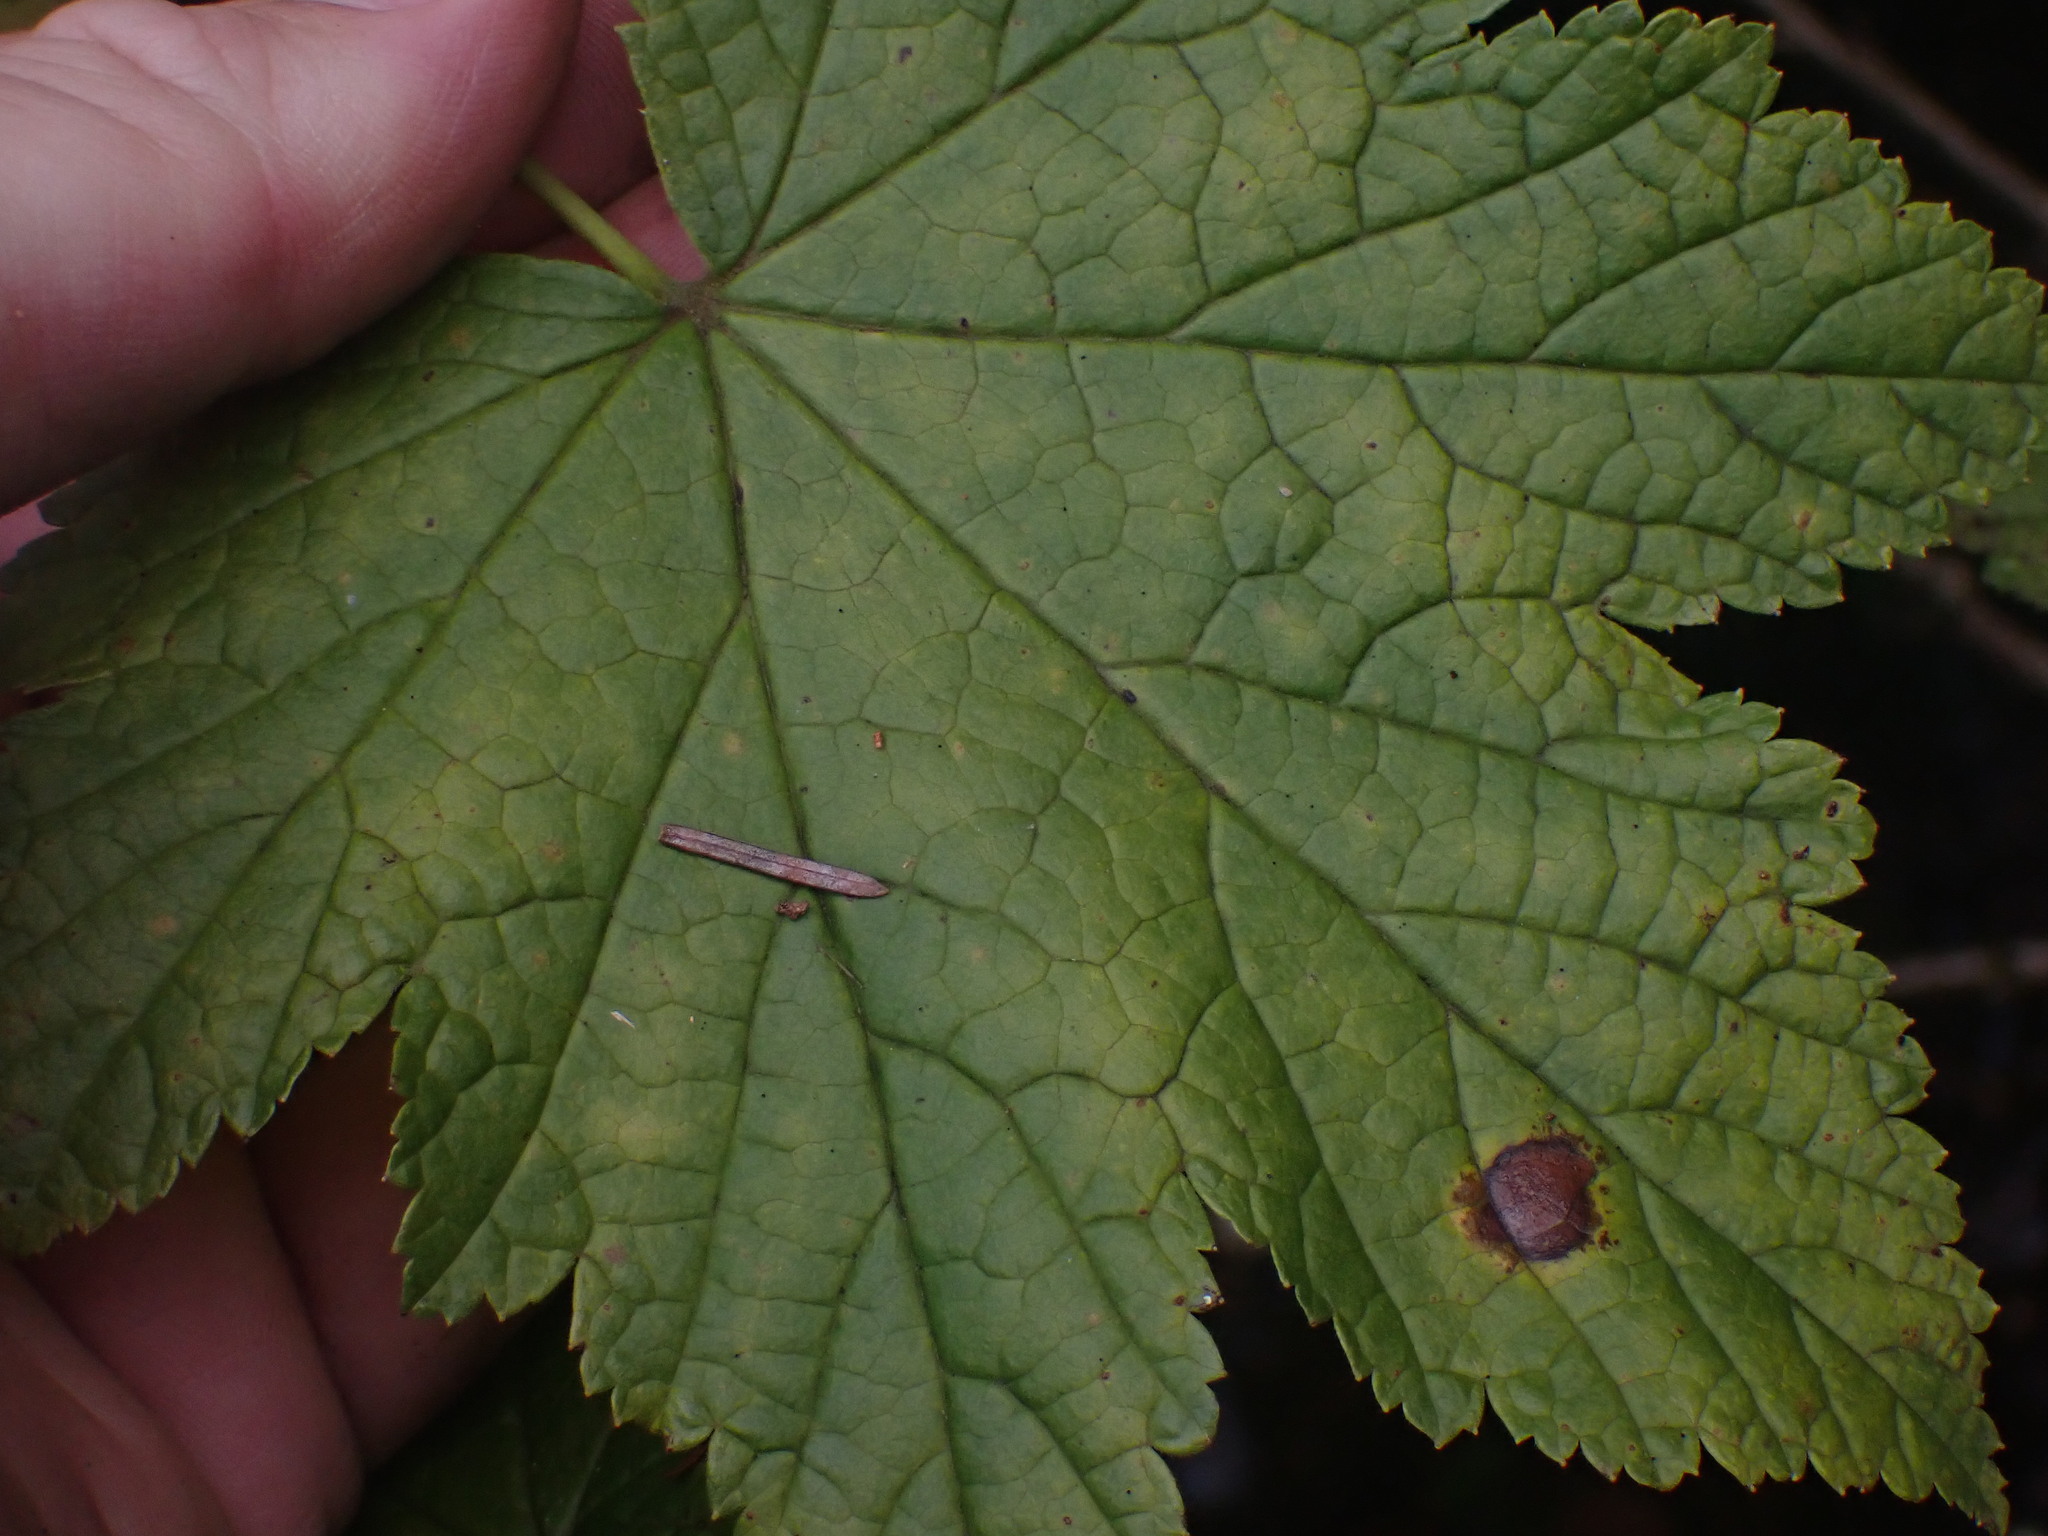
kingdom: Plantae
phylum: Tracheophyta
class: Magnoliopsida
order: Saxifragales
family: Grossulariaceae
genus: Ribes
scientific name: Ribes bracteosum
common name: California black currant
